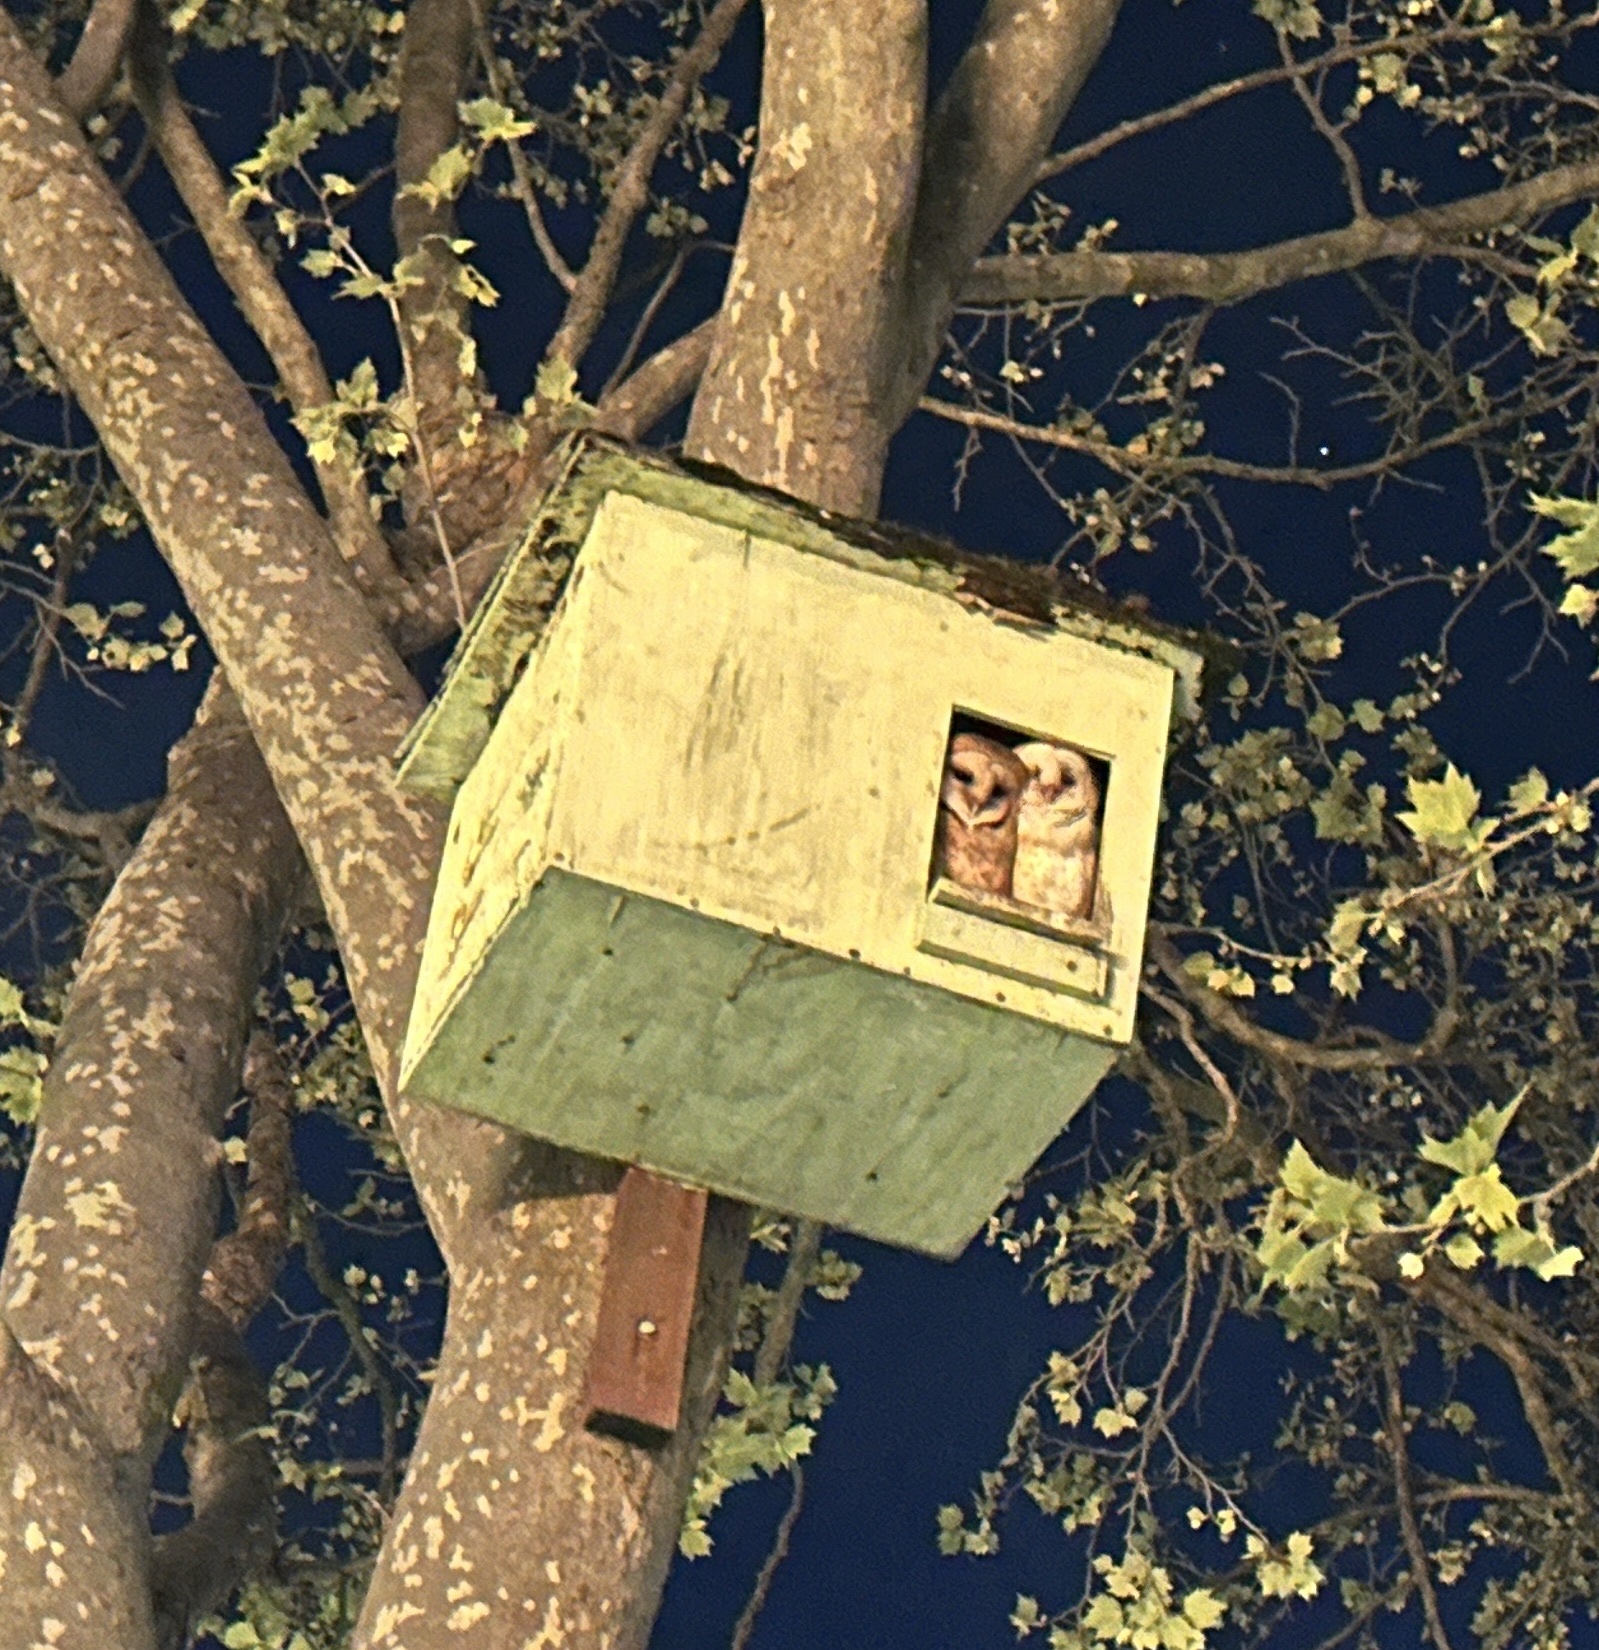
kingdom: Animalia
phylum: Chordata
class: Aves
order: Strigiformes
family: Tytonidae
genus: Tyto
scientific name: Tyto alba
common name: Barn owl
